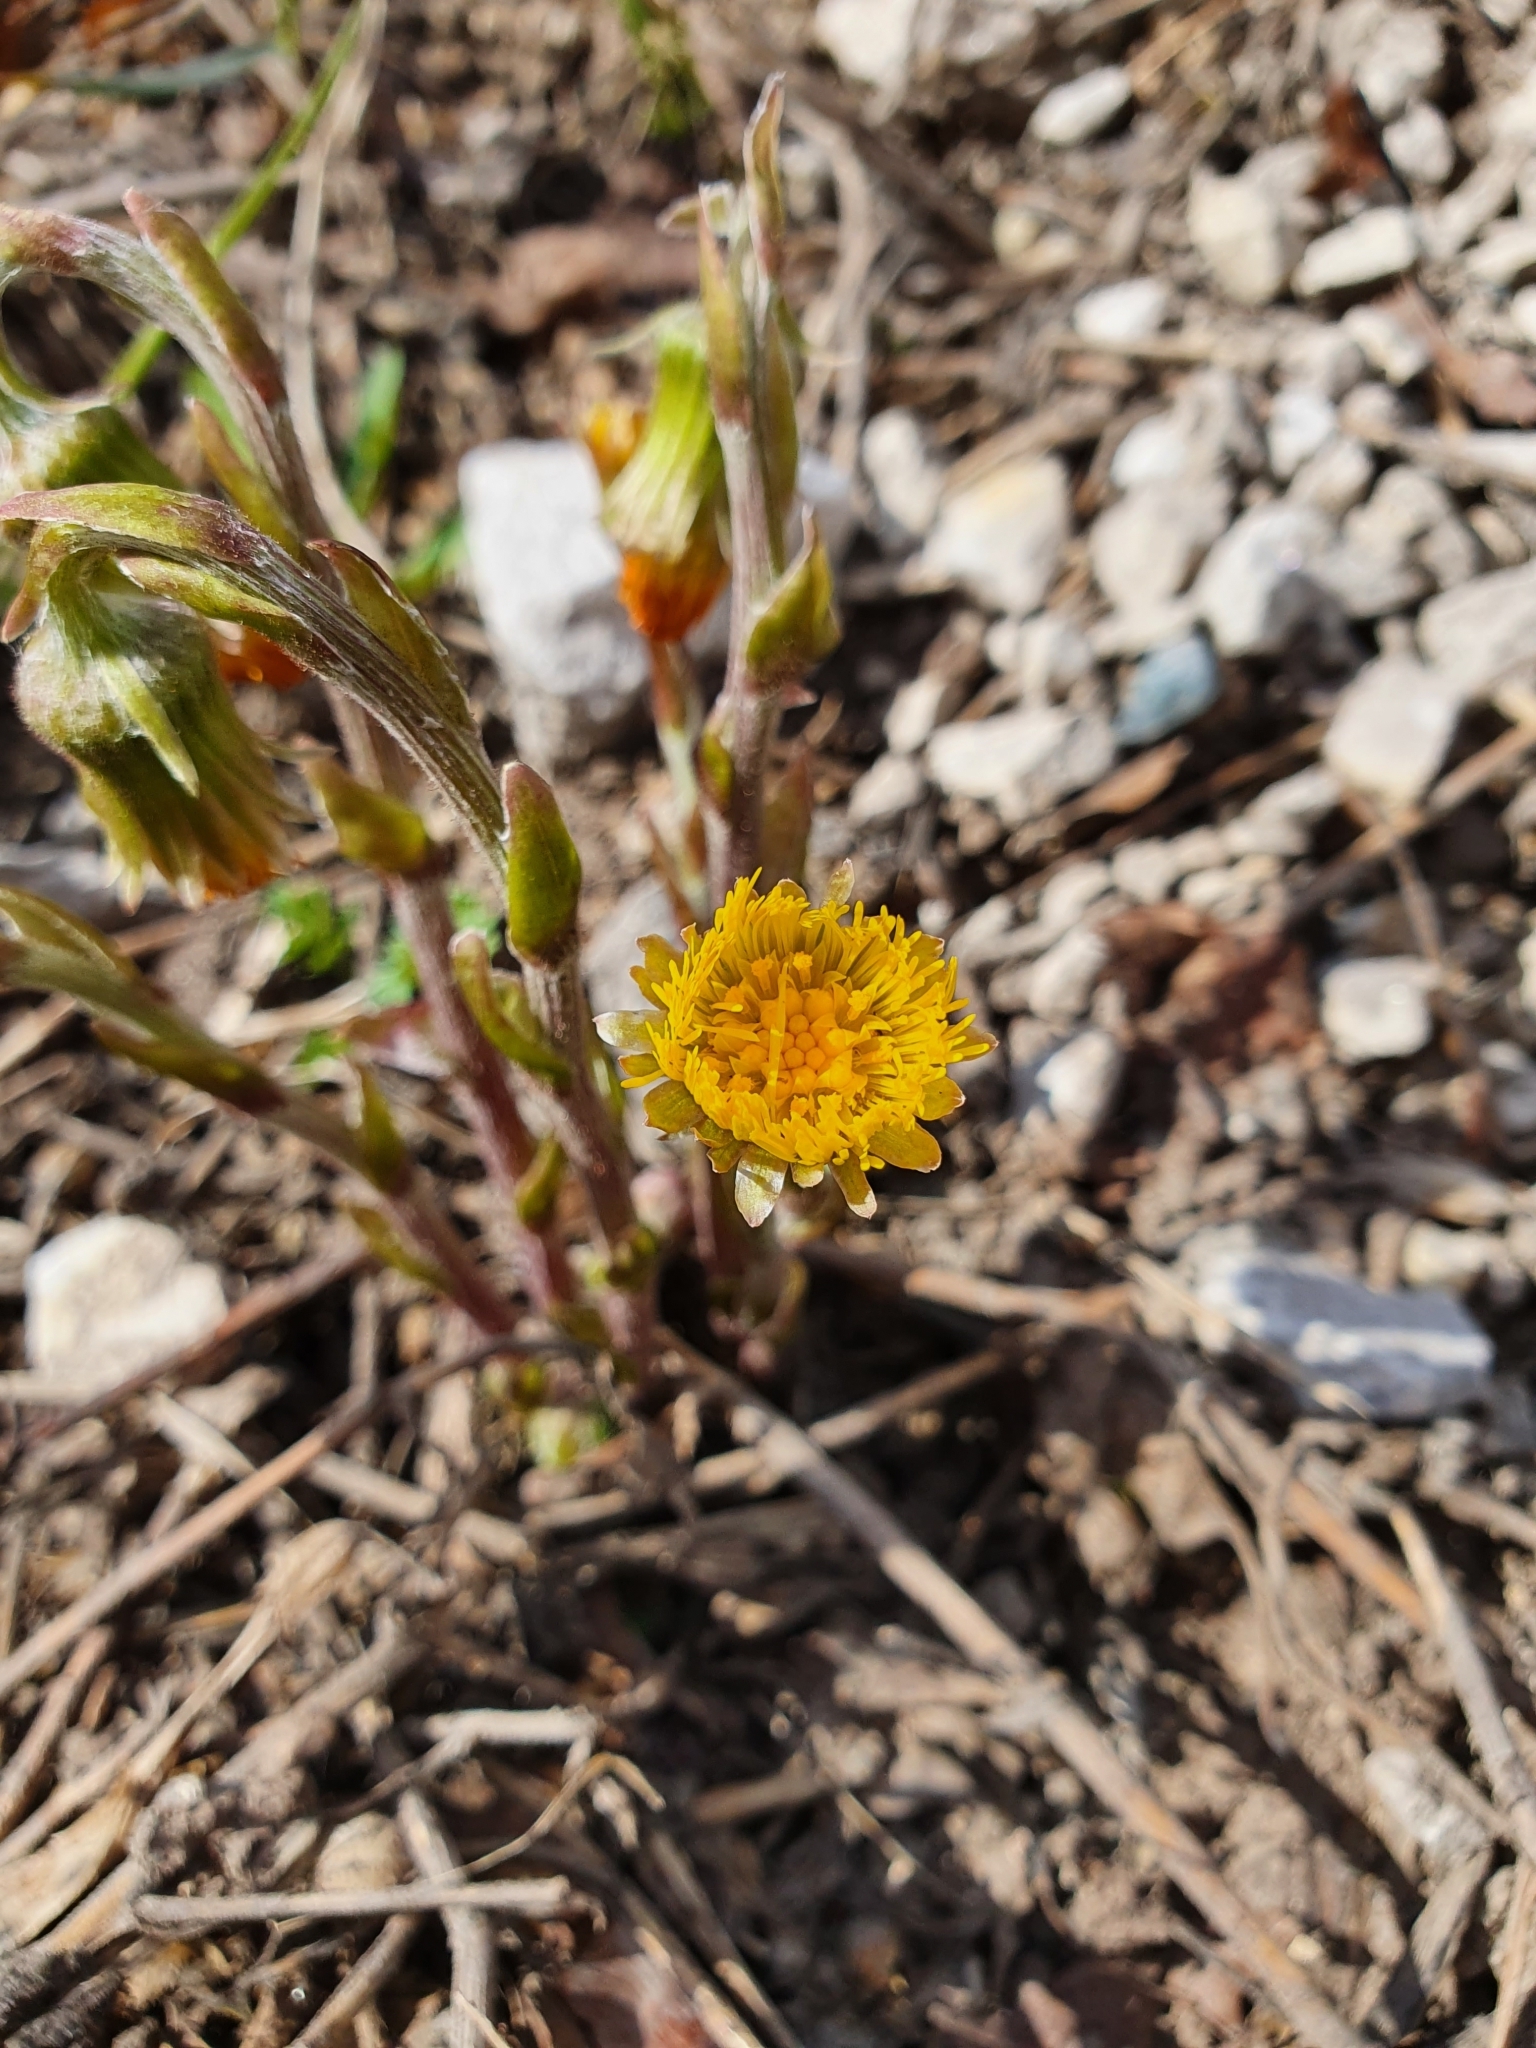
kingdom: Plantae
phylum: Tracheophyta
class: Magnoliopsida
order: Asterales
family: Asteraceae
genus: Tussilago
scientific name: Tussilago farfara
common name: Coltsfoot
